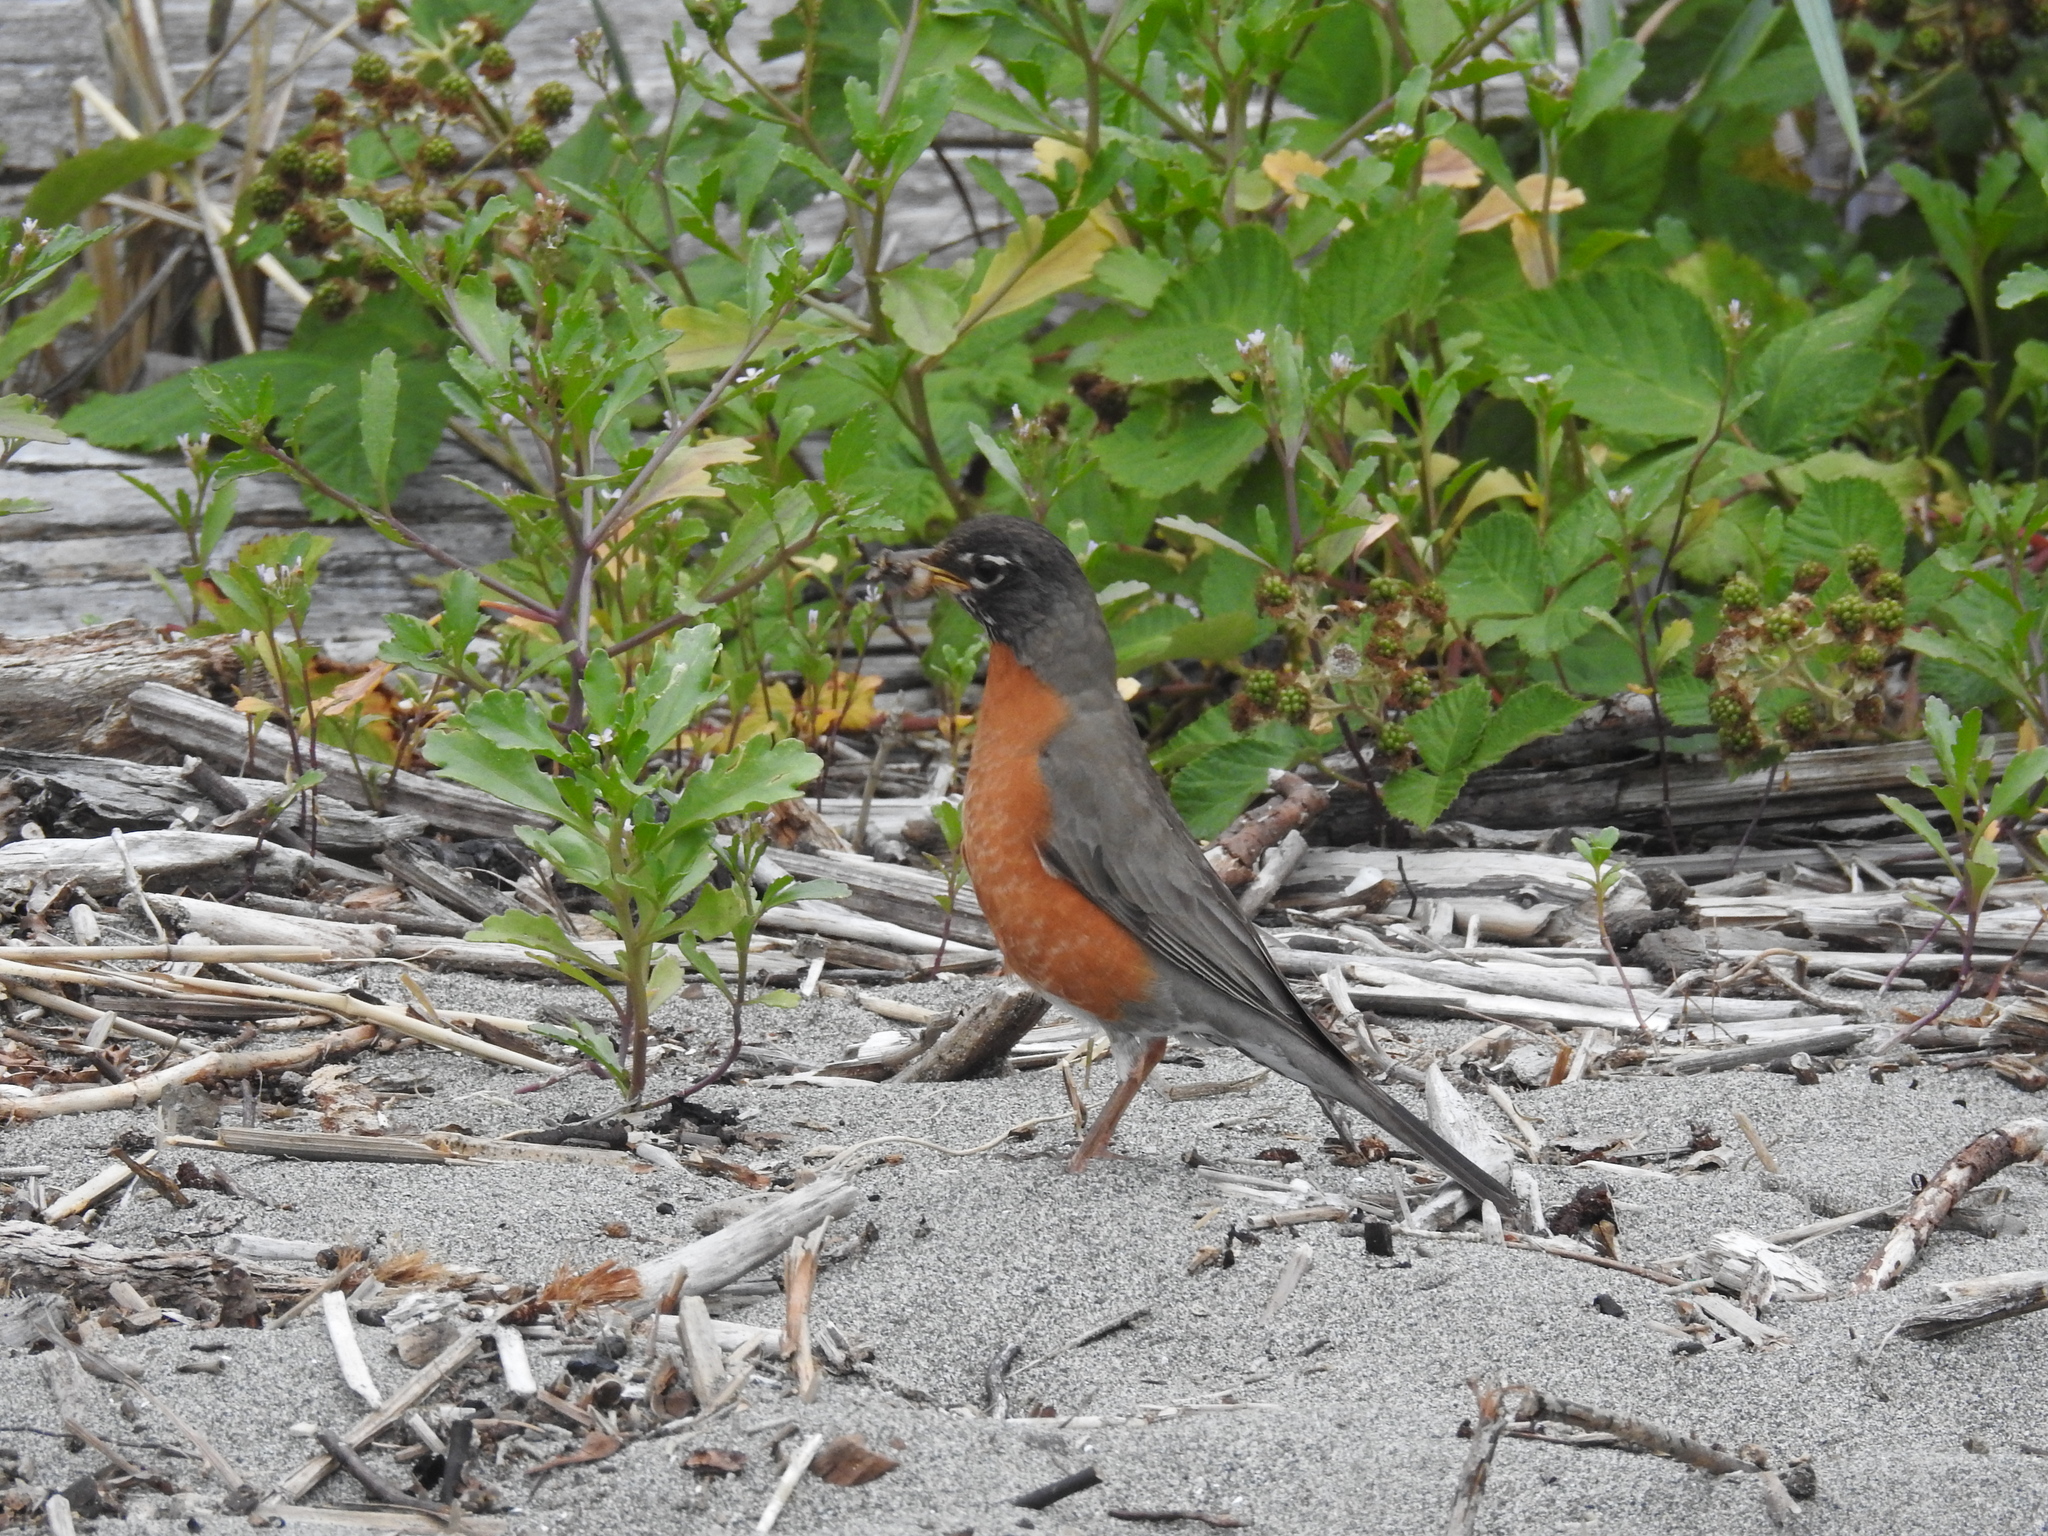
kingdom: Animalia
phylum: Chordata
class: Aves
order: Passeriformes
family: Turdidae
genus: Turdus
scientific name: Turdus migratorius
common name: American robin
